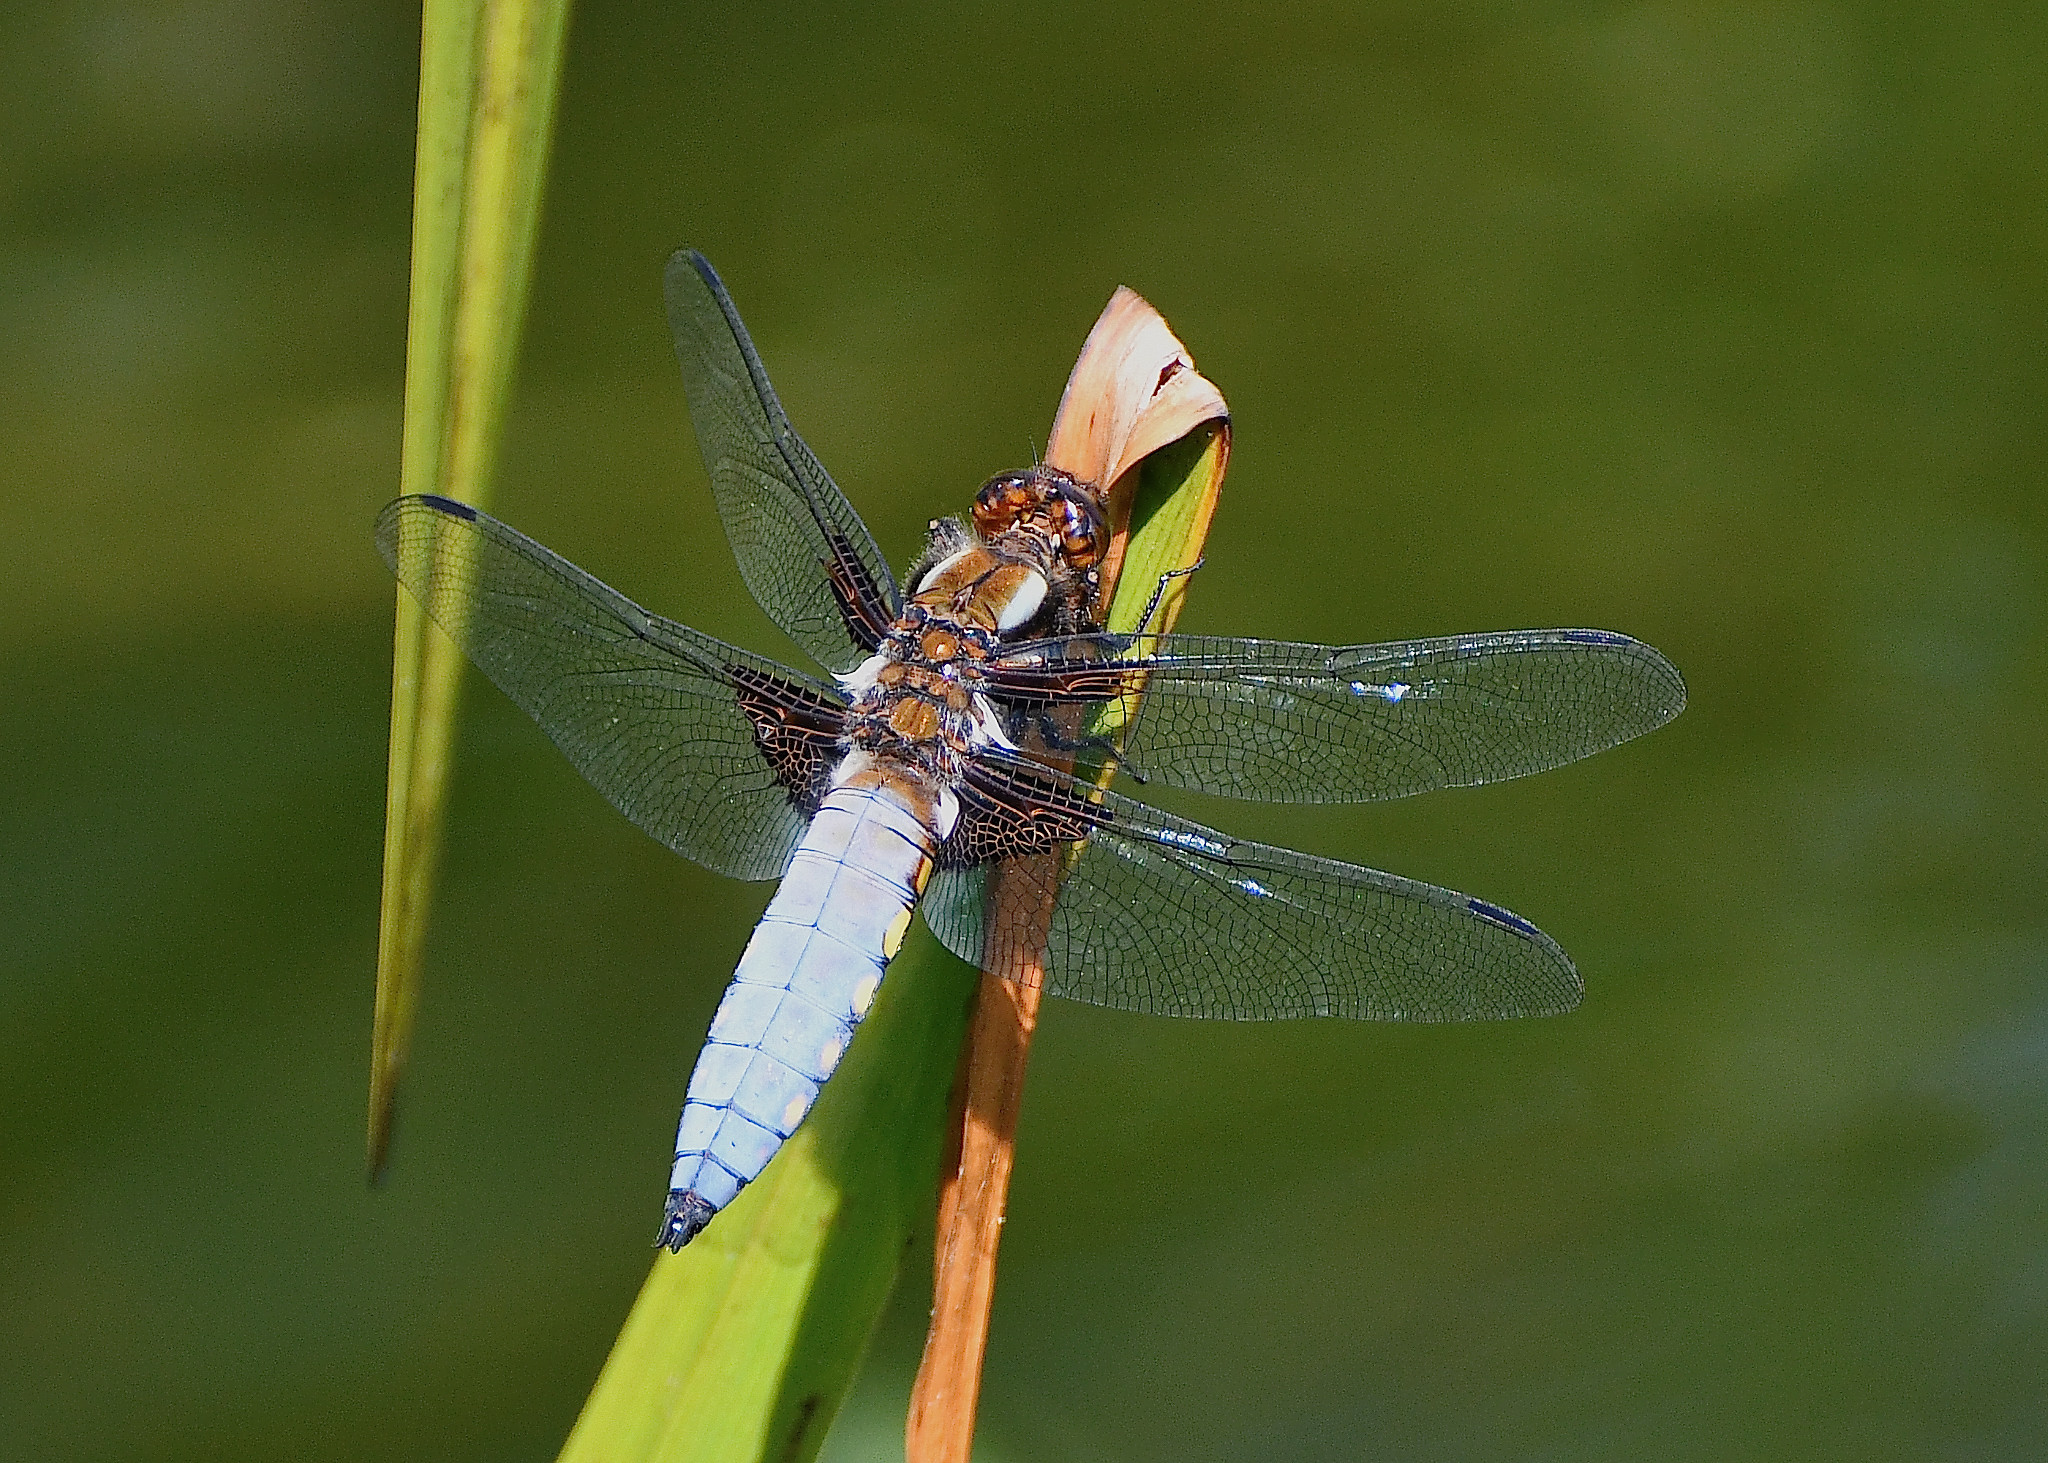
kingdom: Animalia
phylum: Arthropoda
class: Insecta
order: Odonata
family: Libellulidae
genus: Libellula
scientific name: Libellula depressa
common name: Broad-bodied chaser
